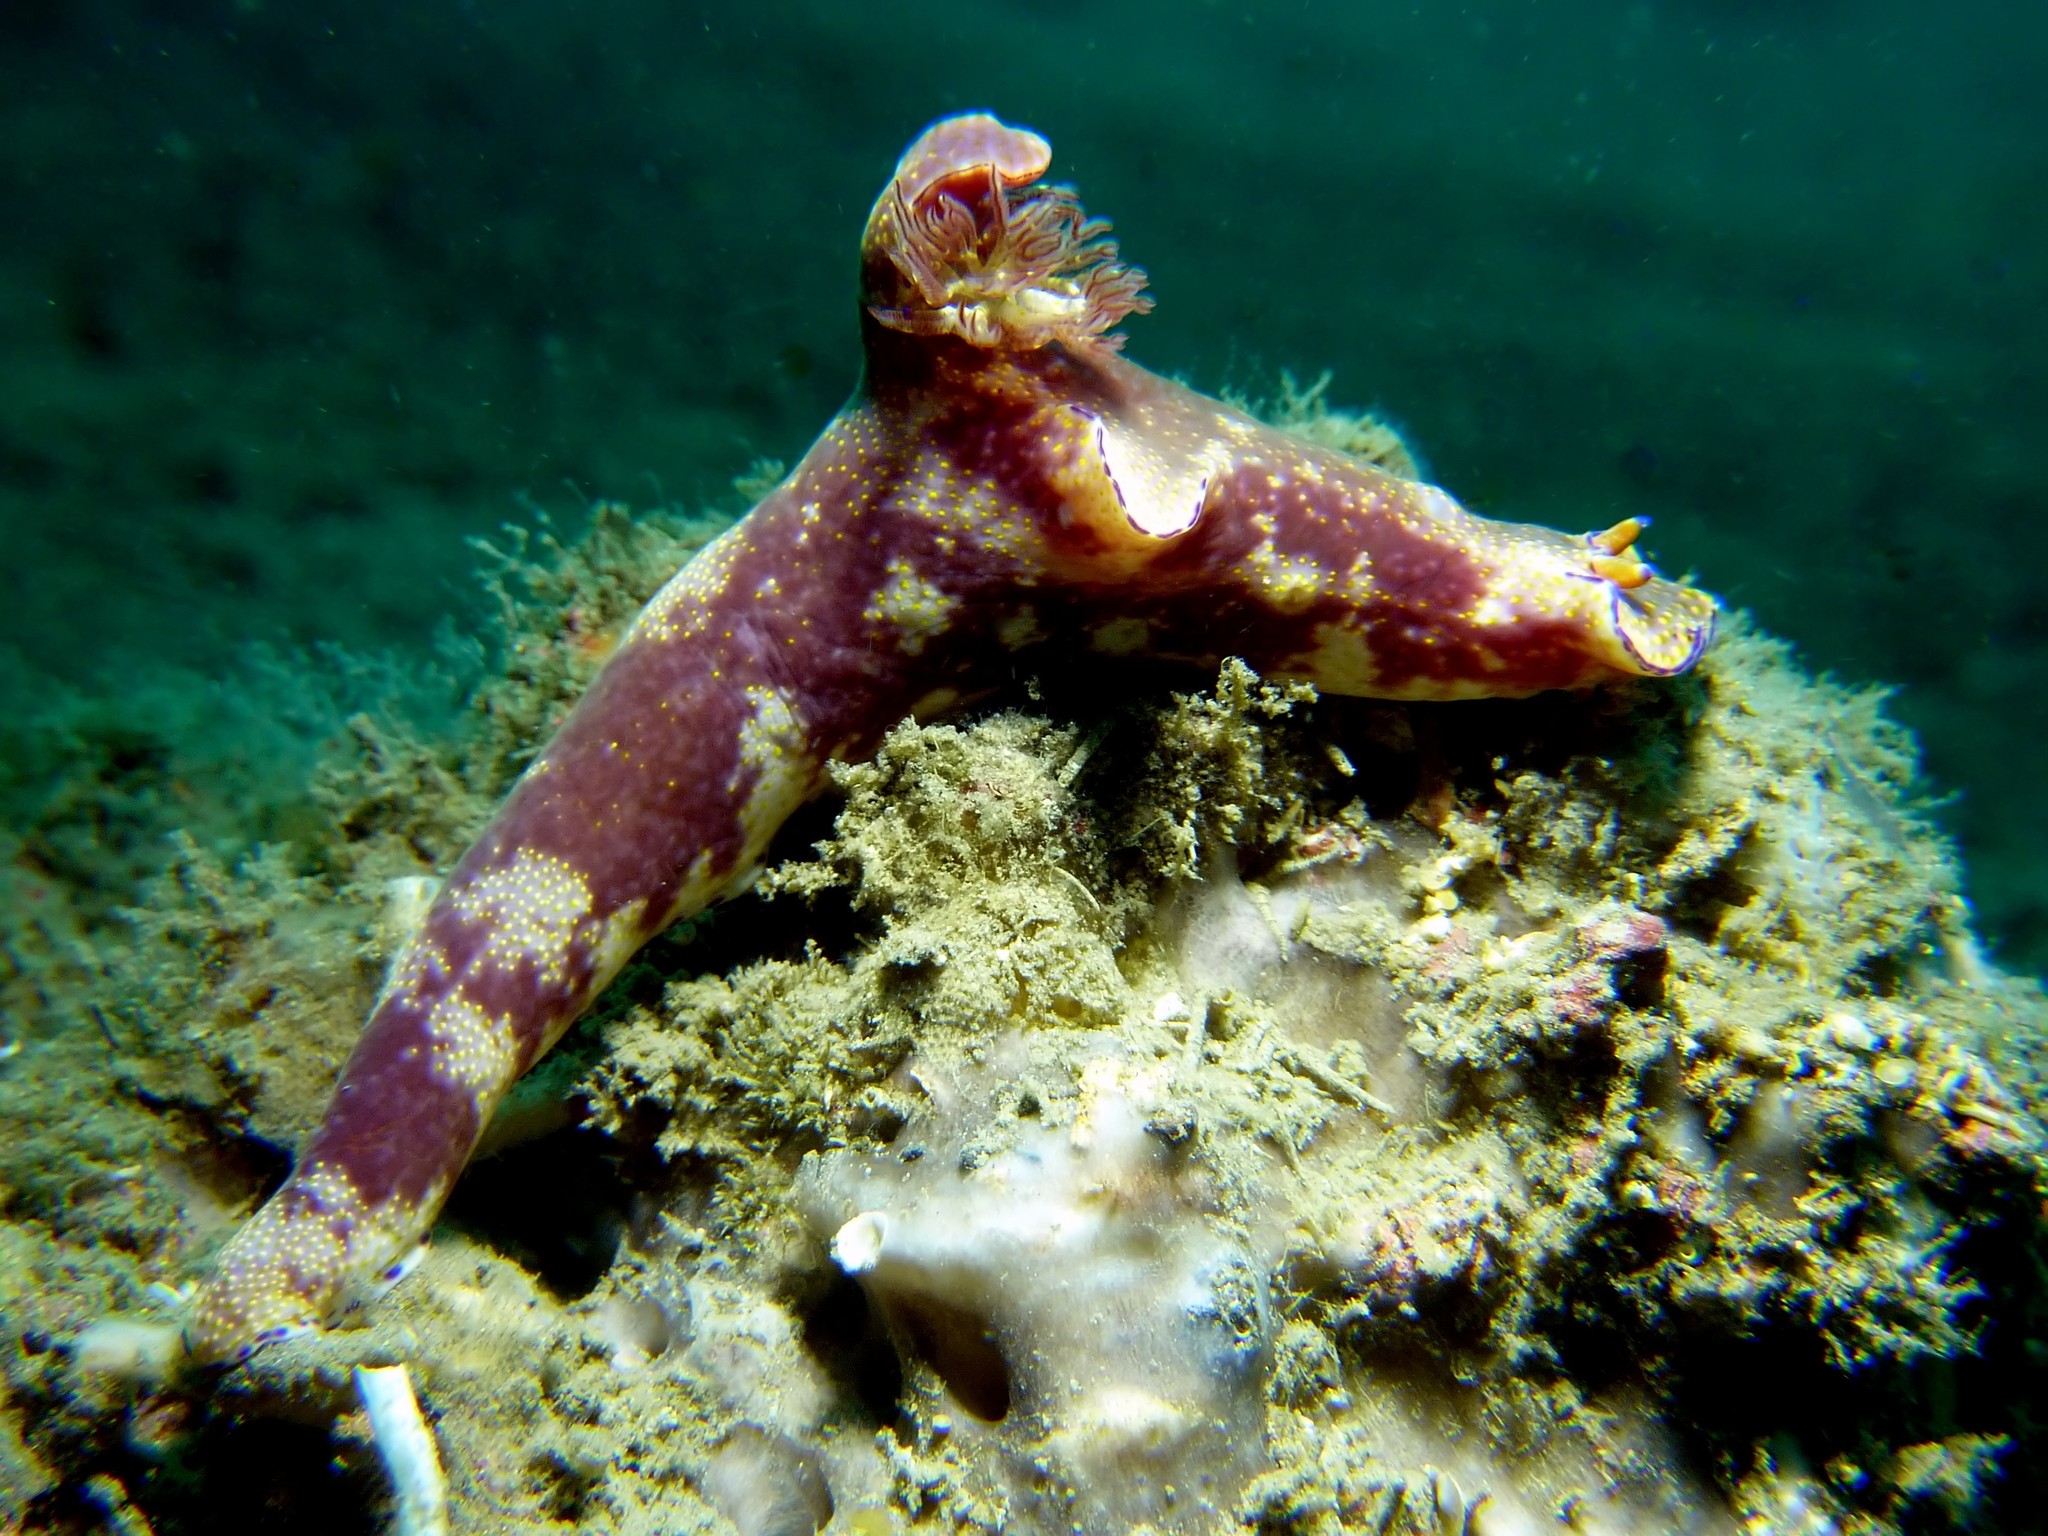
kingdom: Animalia
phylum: Mollusca
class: Gastropoda
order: Nudibranchia
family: Chromodorididae
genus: Ceratosoma
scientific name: Ceratosoma gracillimum
